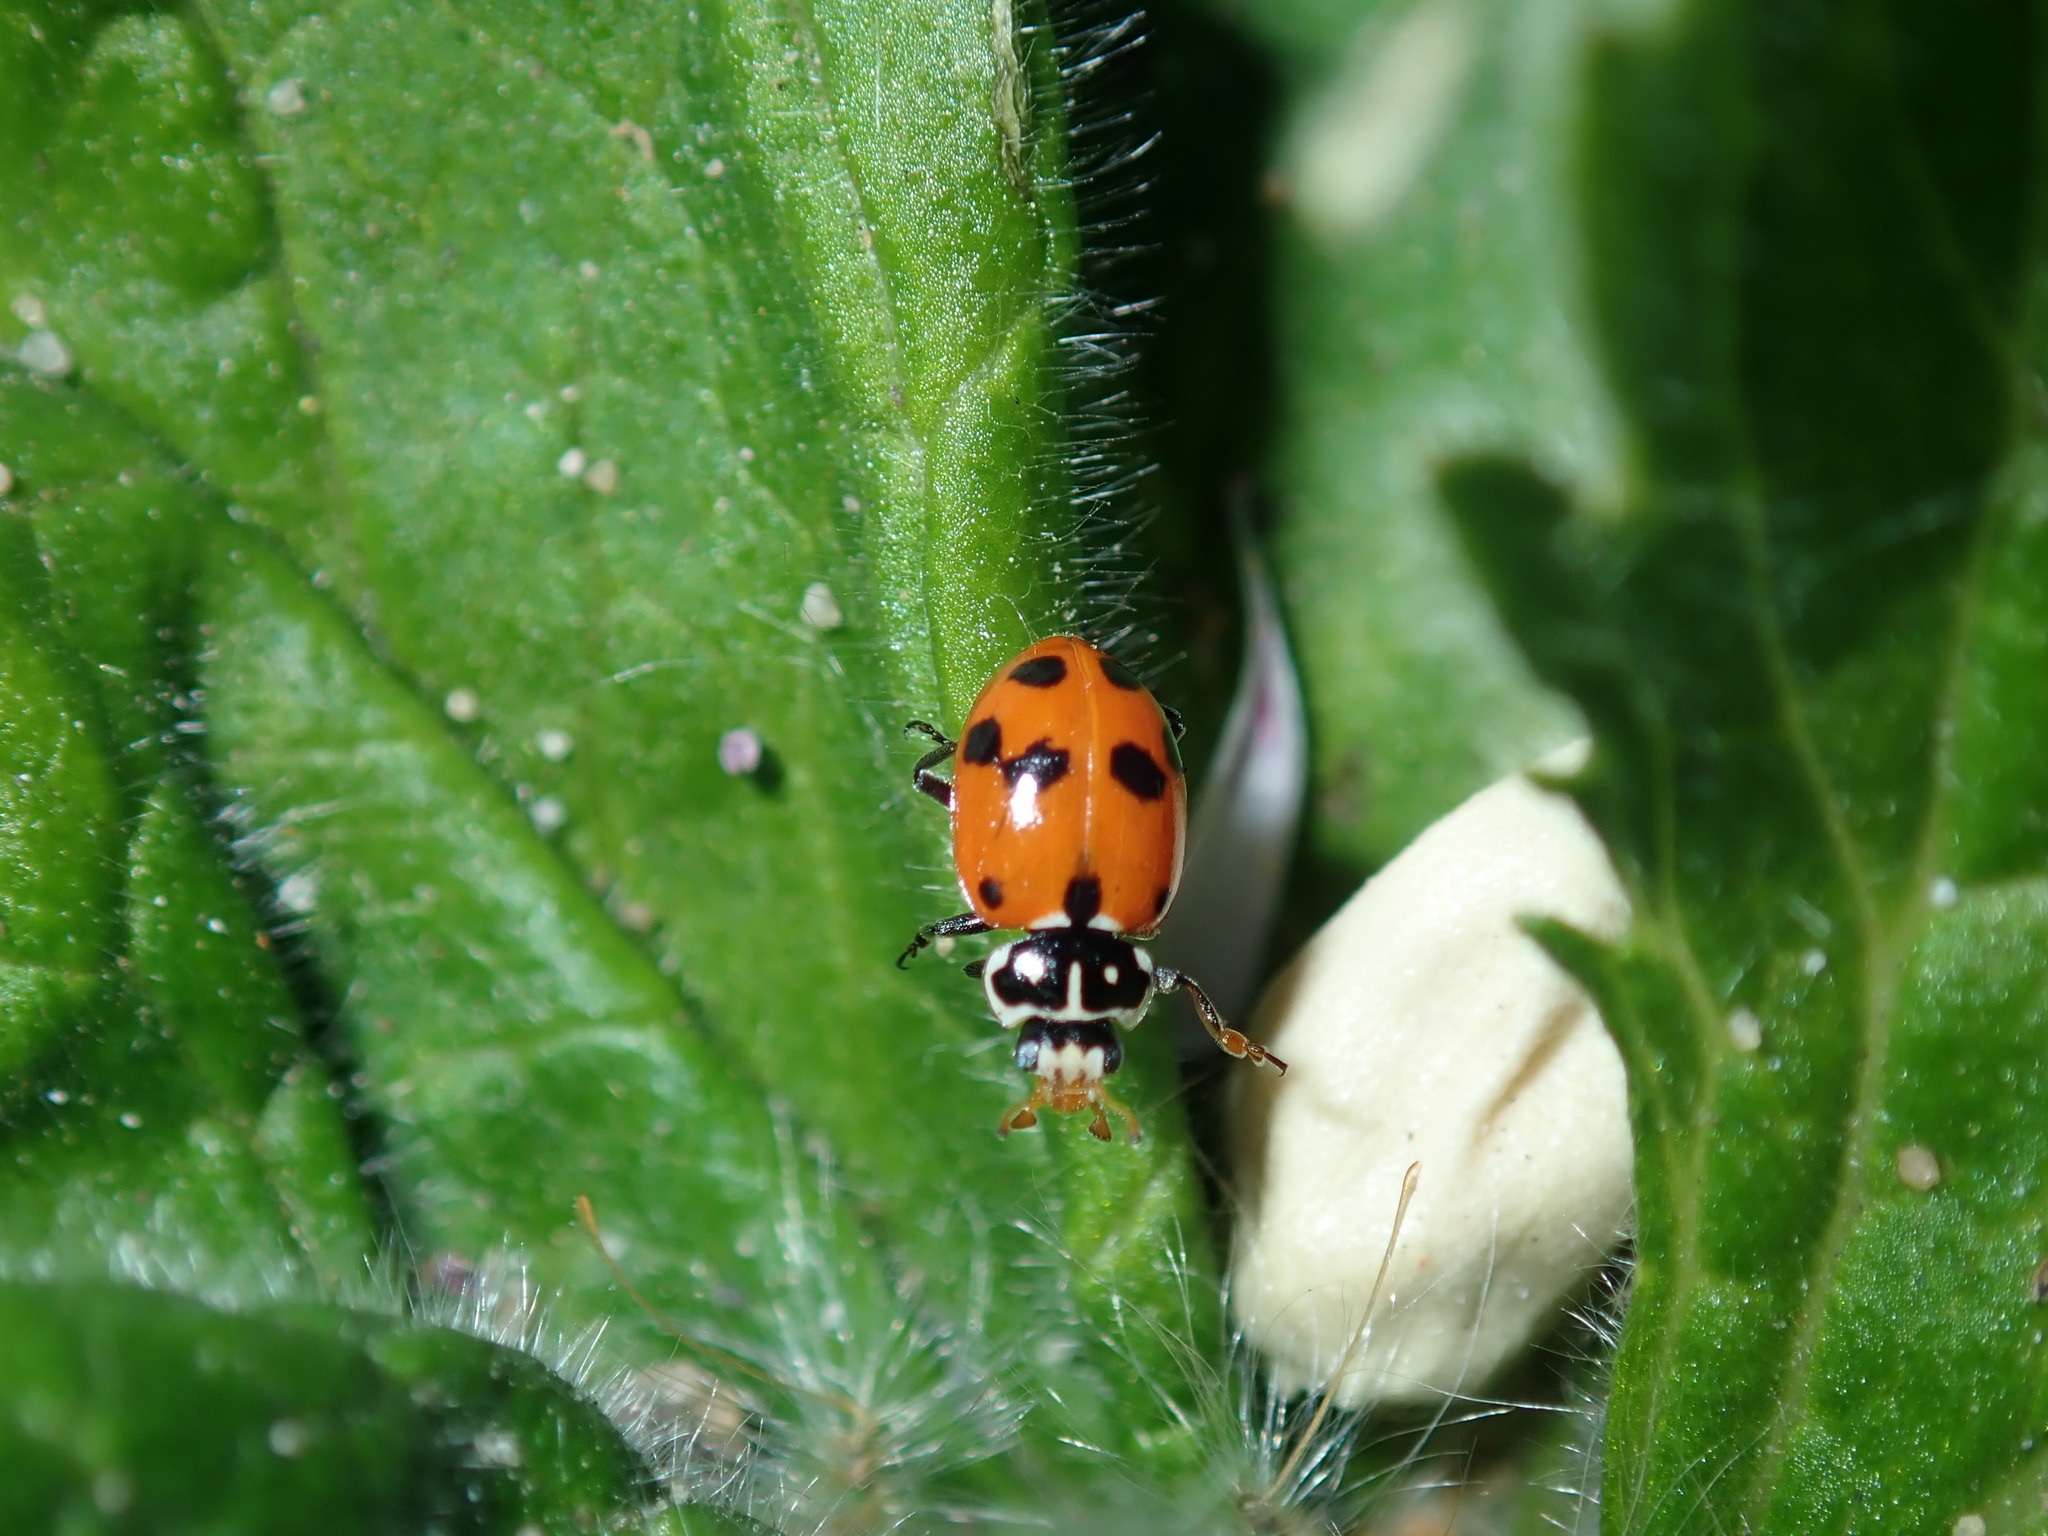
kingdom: Animalia
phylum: Arthropoda
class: Insecta
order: Coleoptera
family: Coccinellidae
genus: Hippodamia
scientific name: Hippodamia variegata
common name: Ladybird beetle
